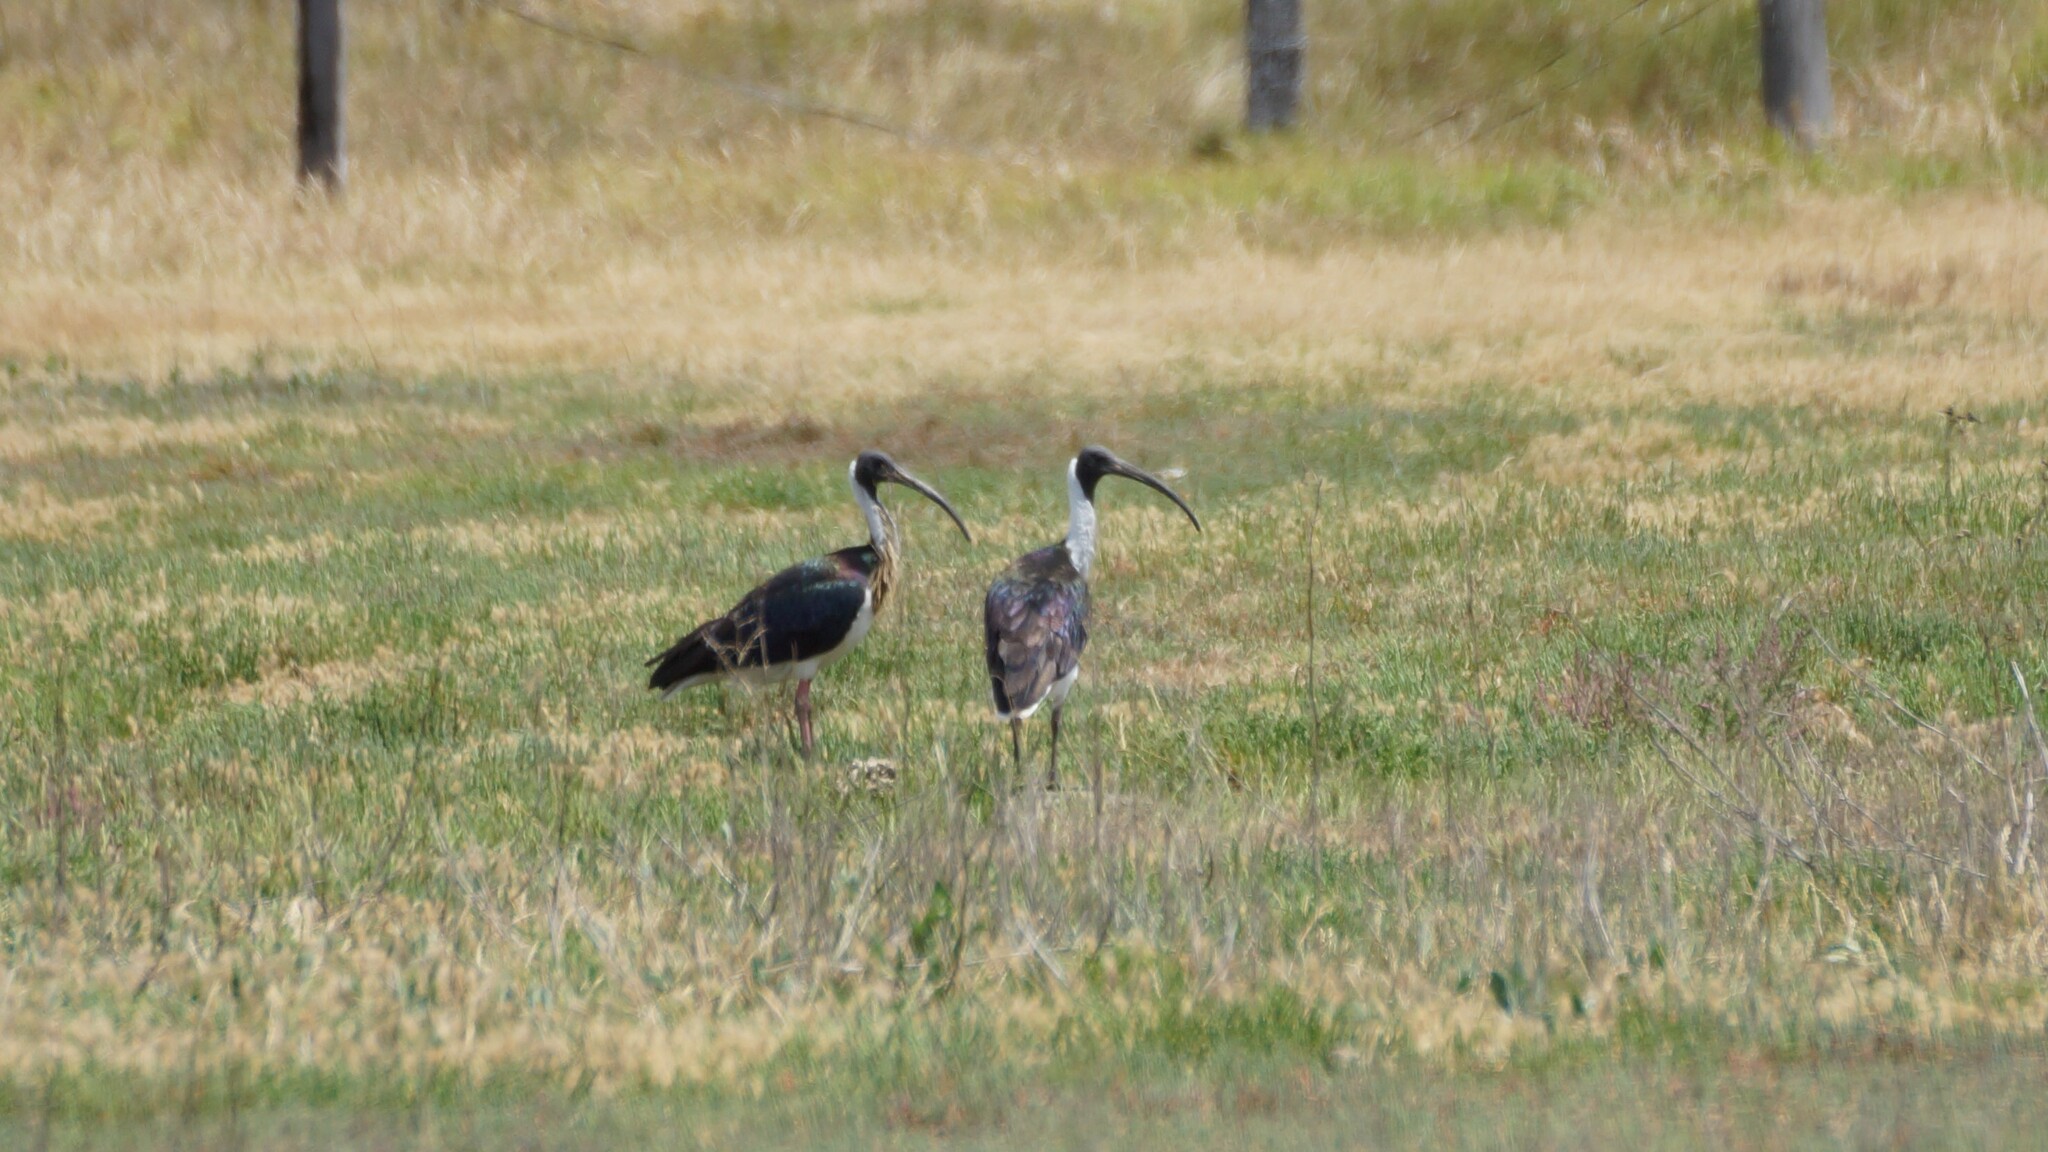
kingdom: Animalia
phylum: Chordata
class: Aves
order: Pelecaniformes
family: Threskiornithidae
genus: Threskiornis
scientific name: Threskiornis spinicollis
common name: Straw-necked ibis
